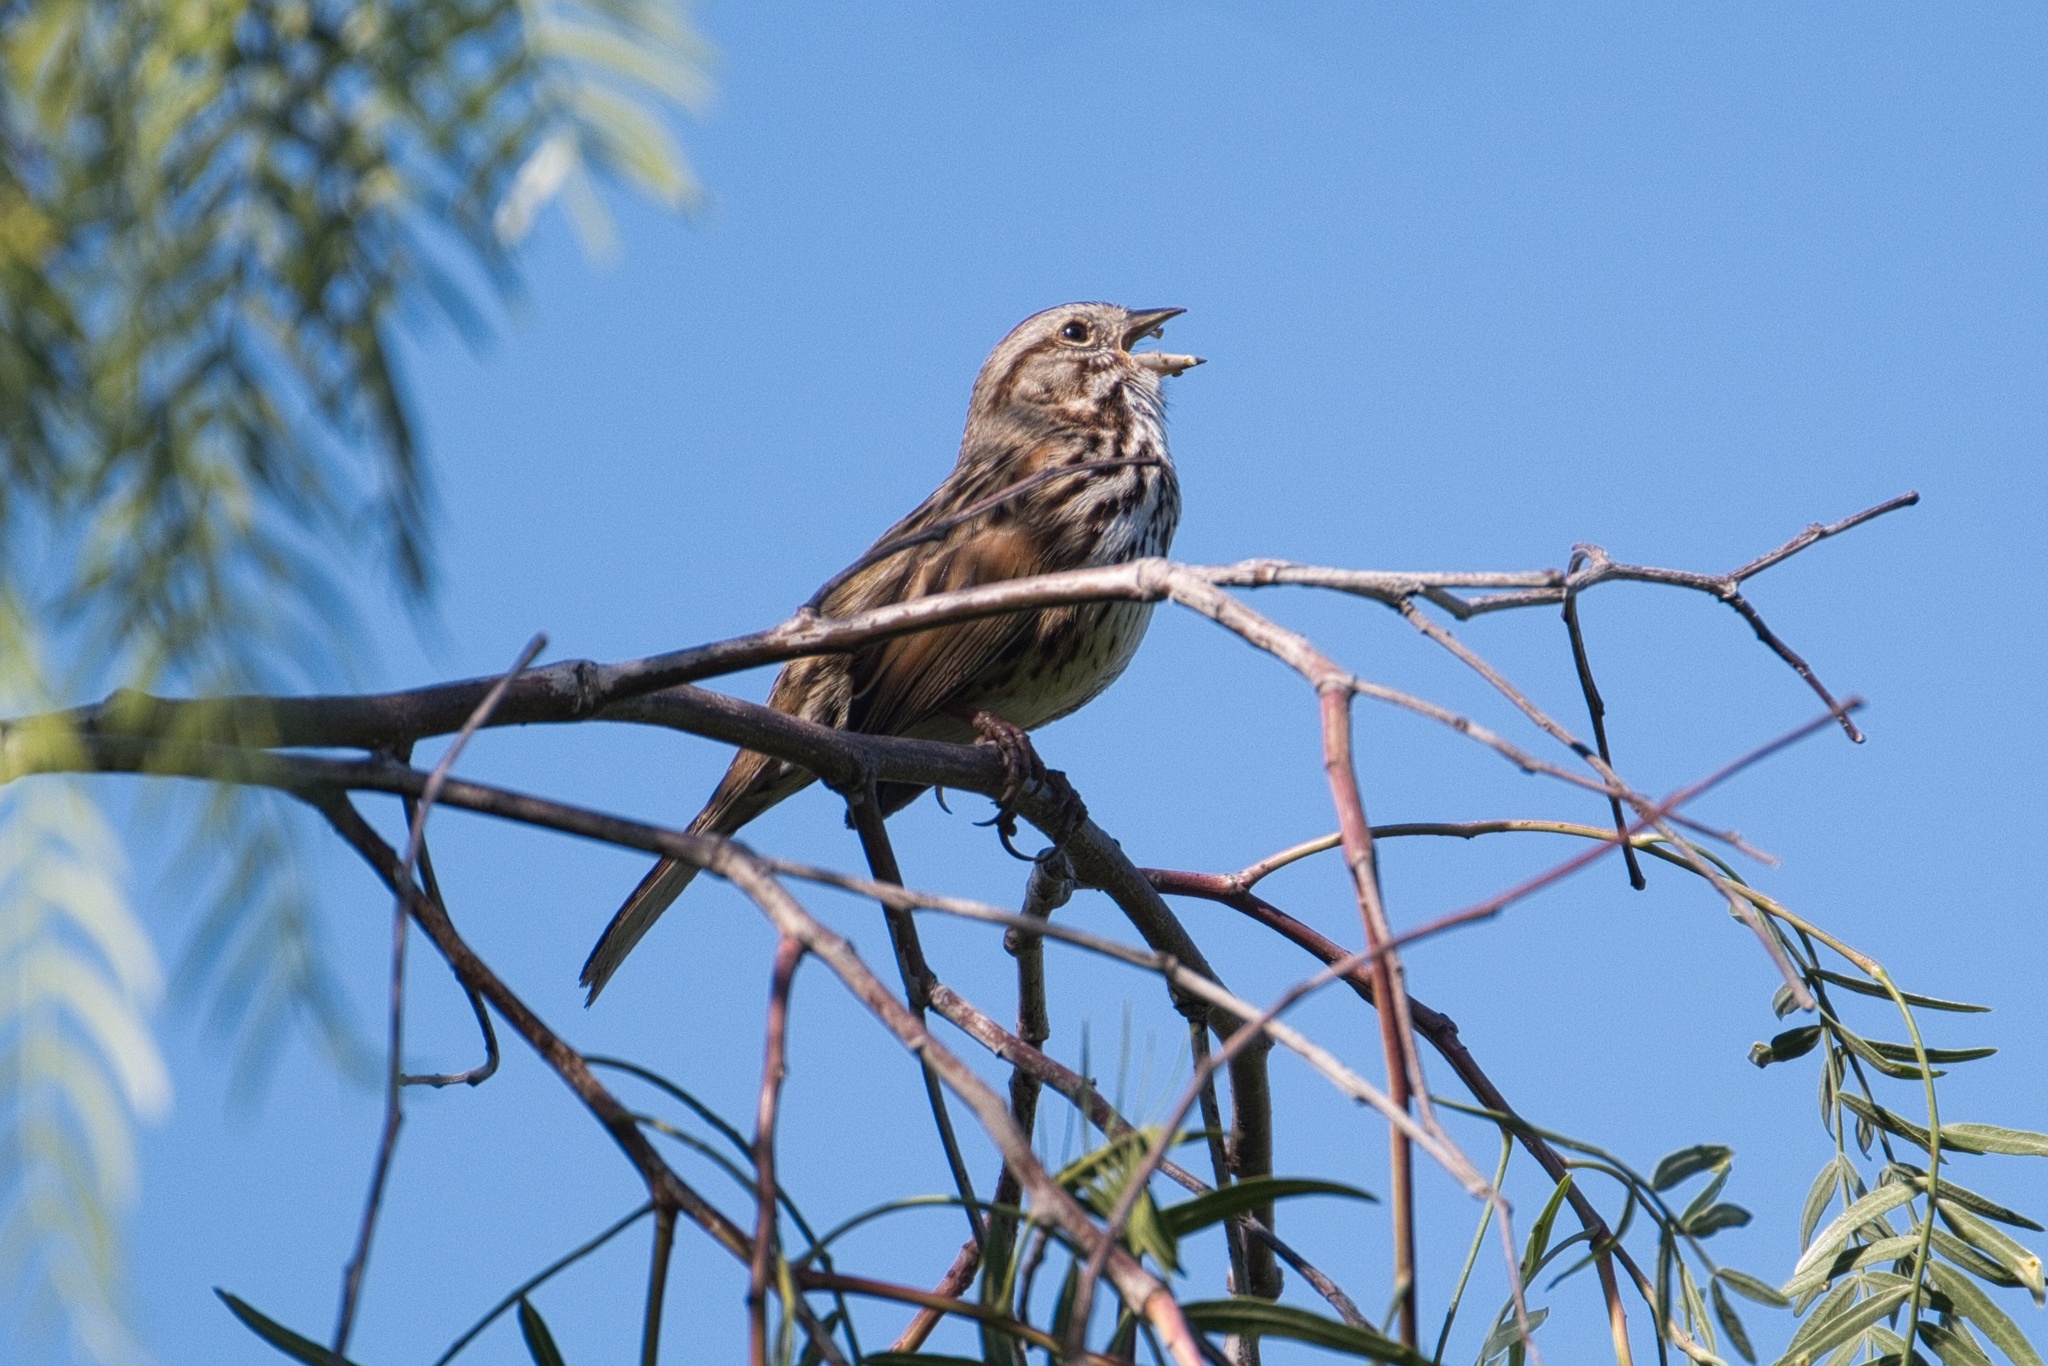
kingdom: Animalia
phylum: Chordata
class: Aves
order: Passeriformes
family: Passerellidae
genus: Melospiza
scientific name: Melospiza melodia
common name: Song sparrow
